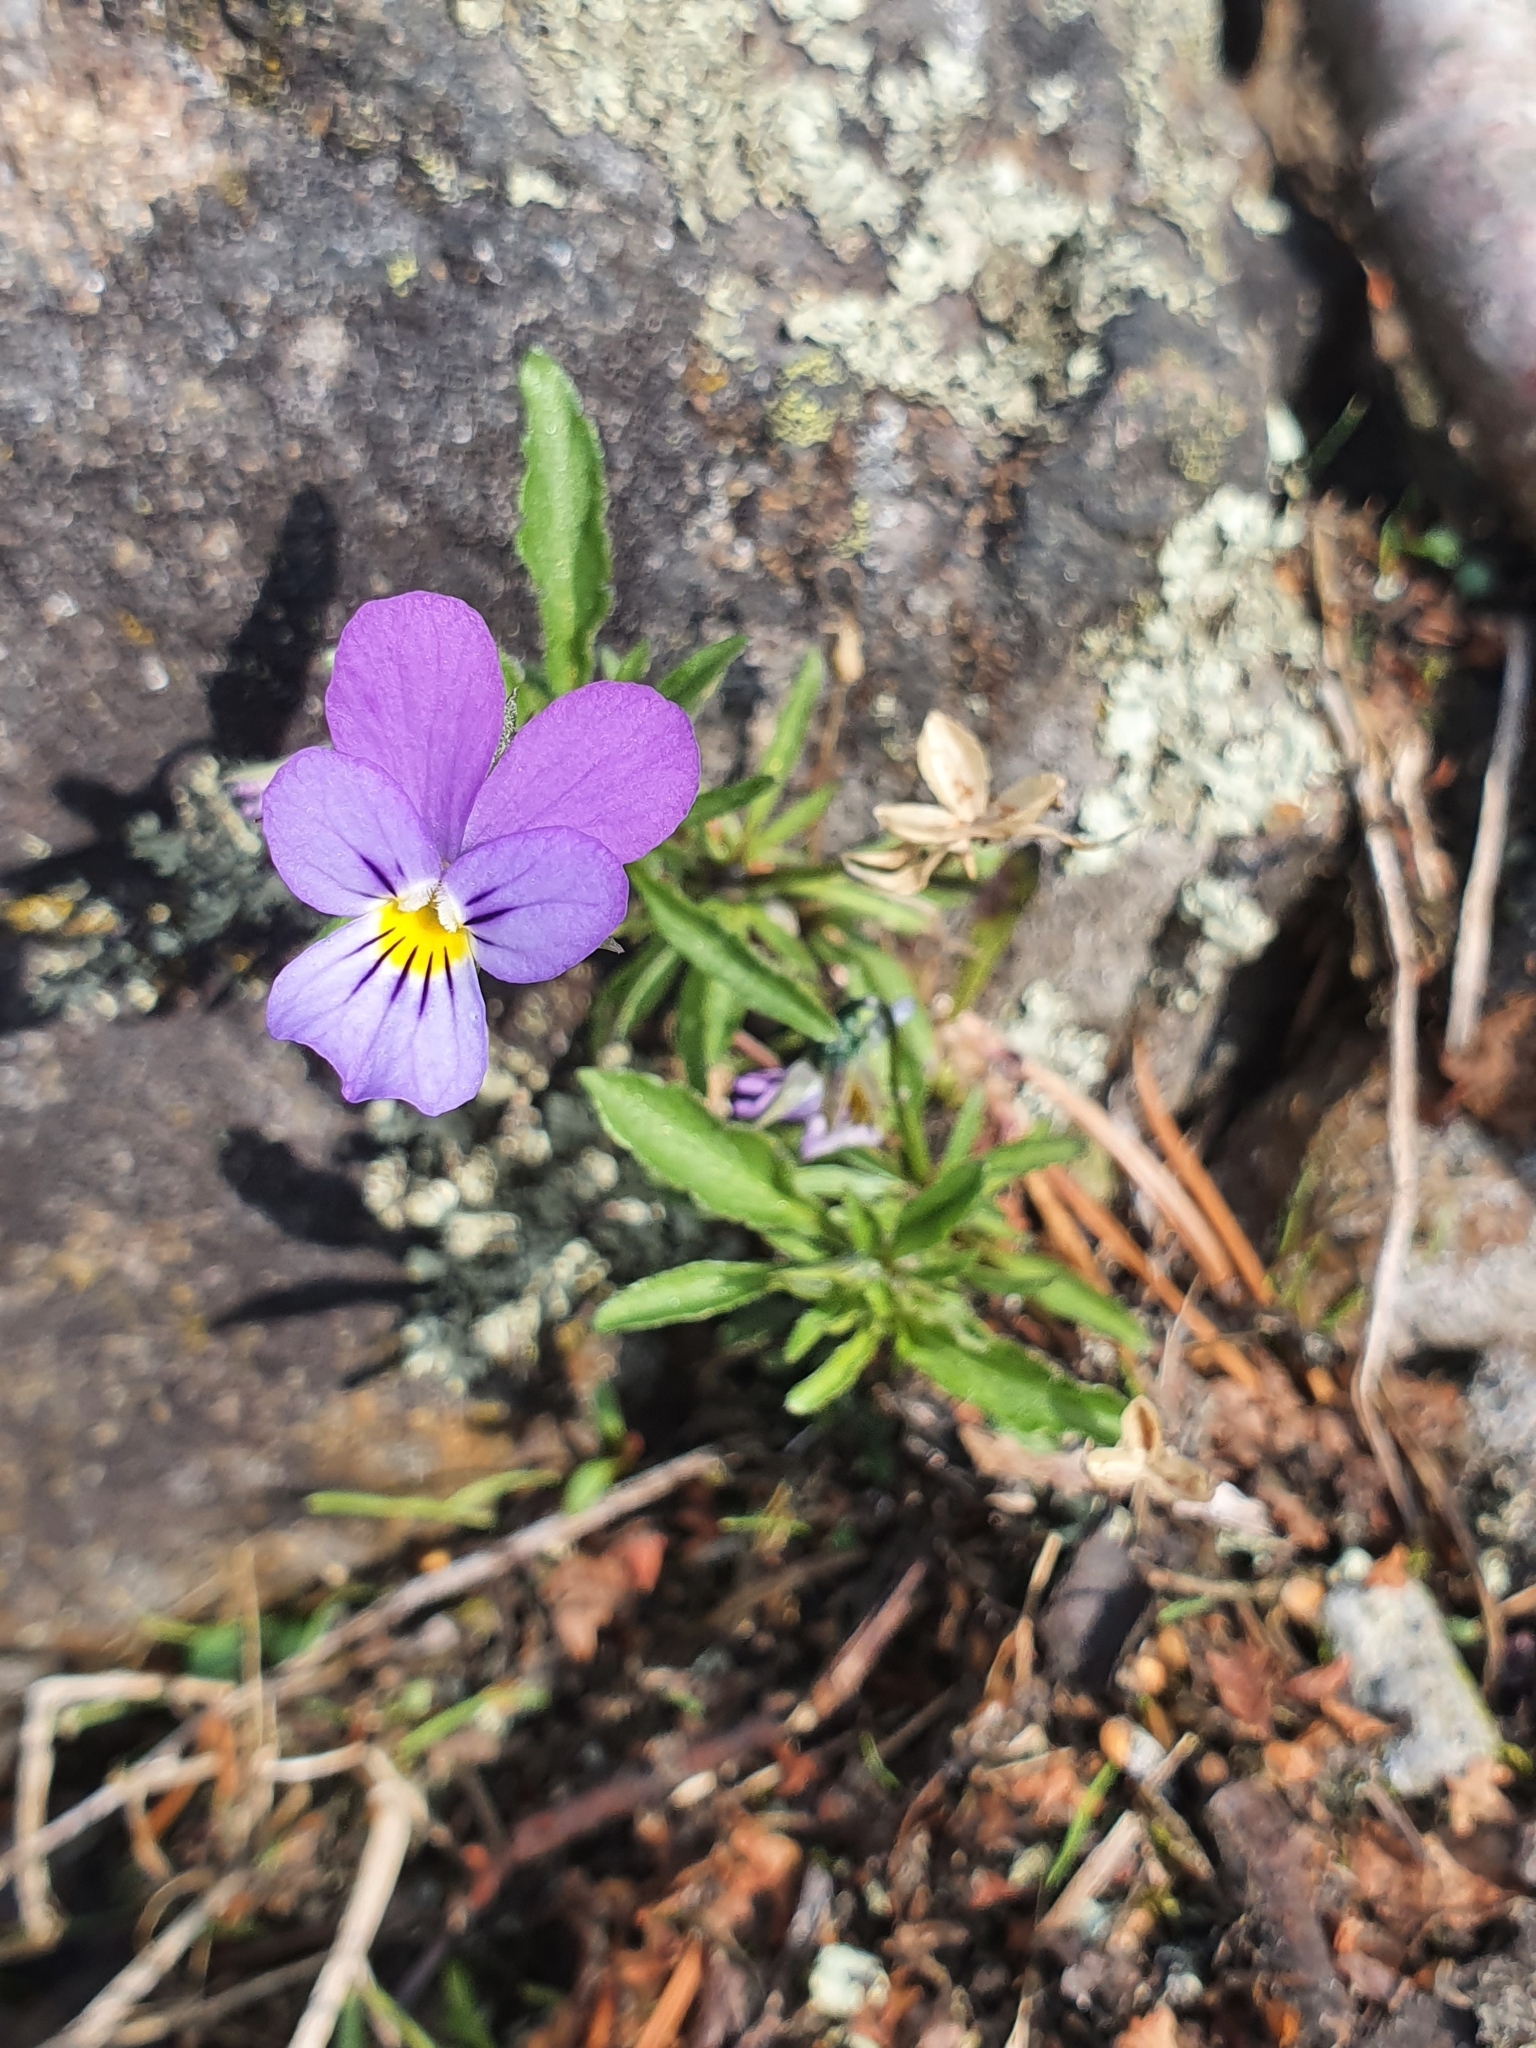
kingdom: Plantae
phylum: Tracheophyta
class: Magnoliopsida
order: Malpighiales
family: Violaceae
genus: Viola
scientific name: Viola tricolor
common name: Pansy
